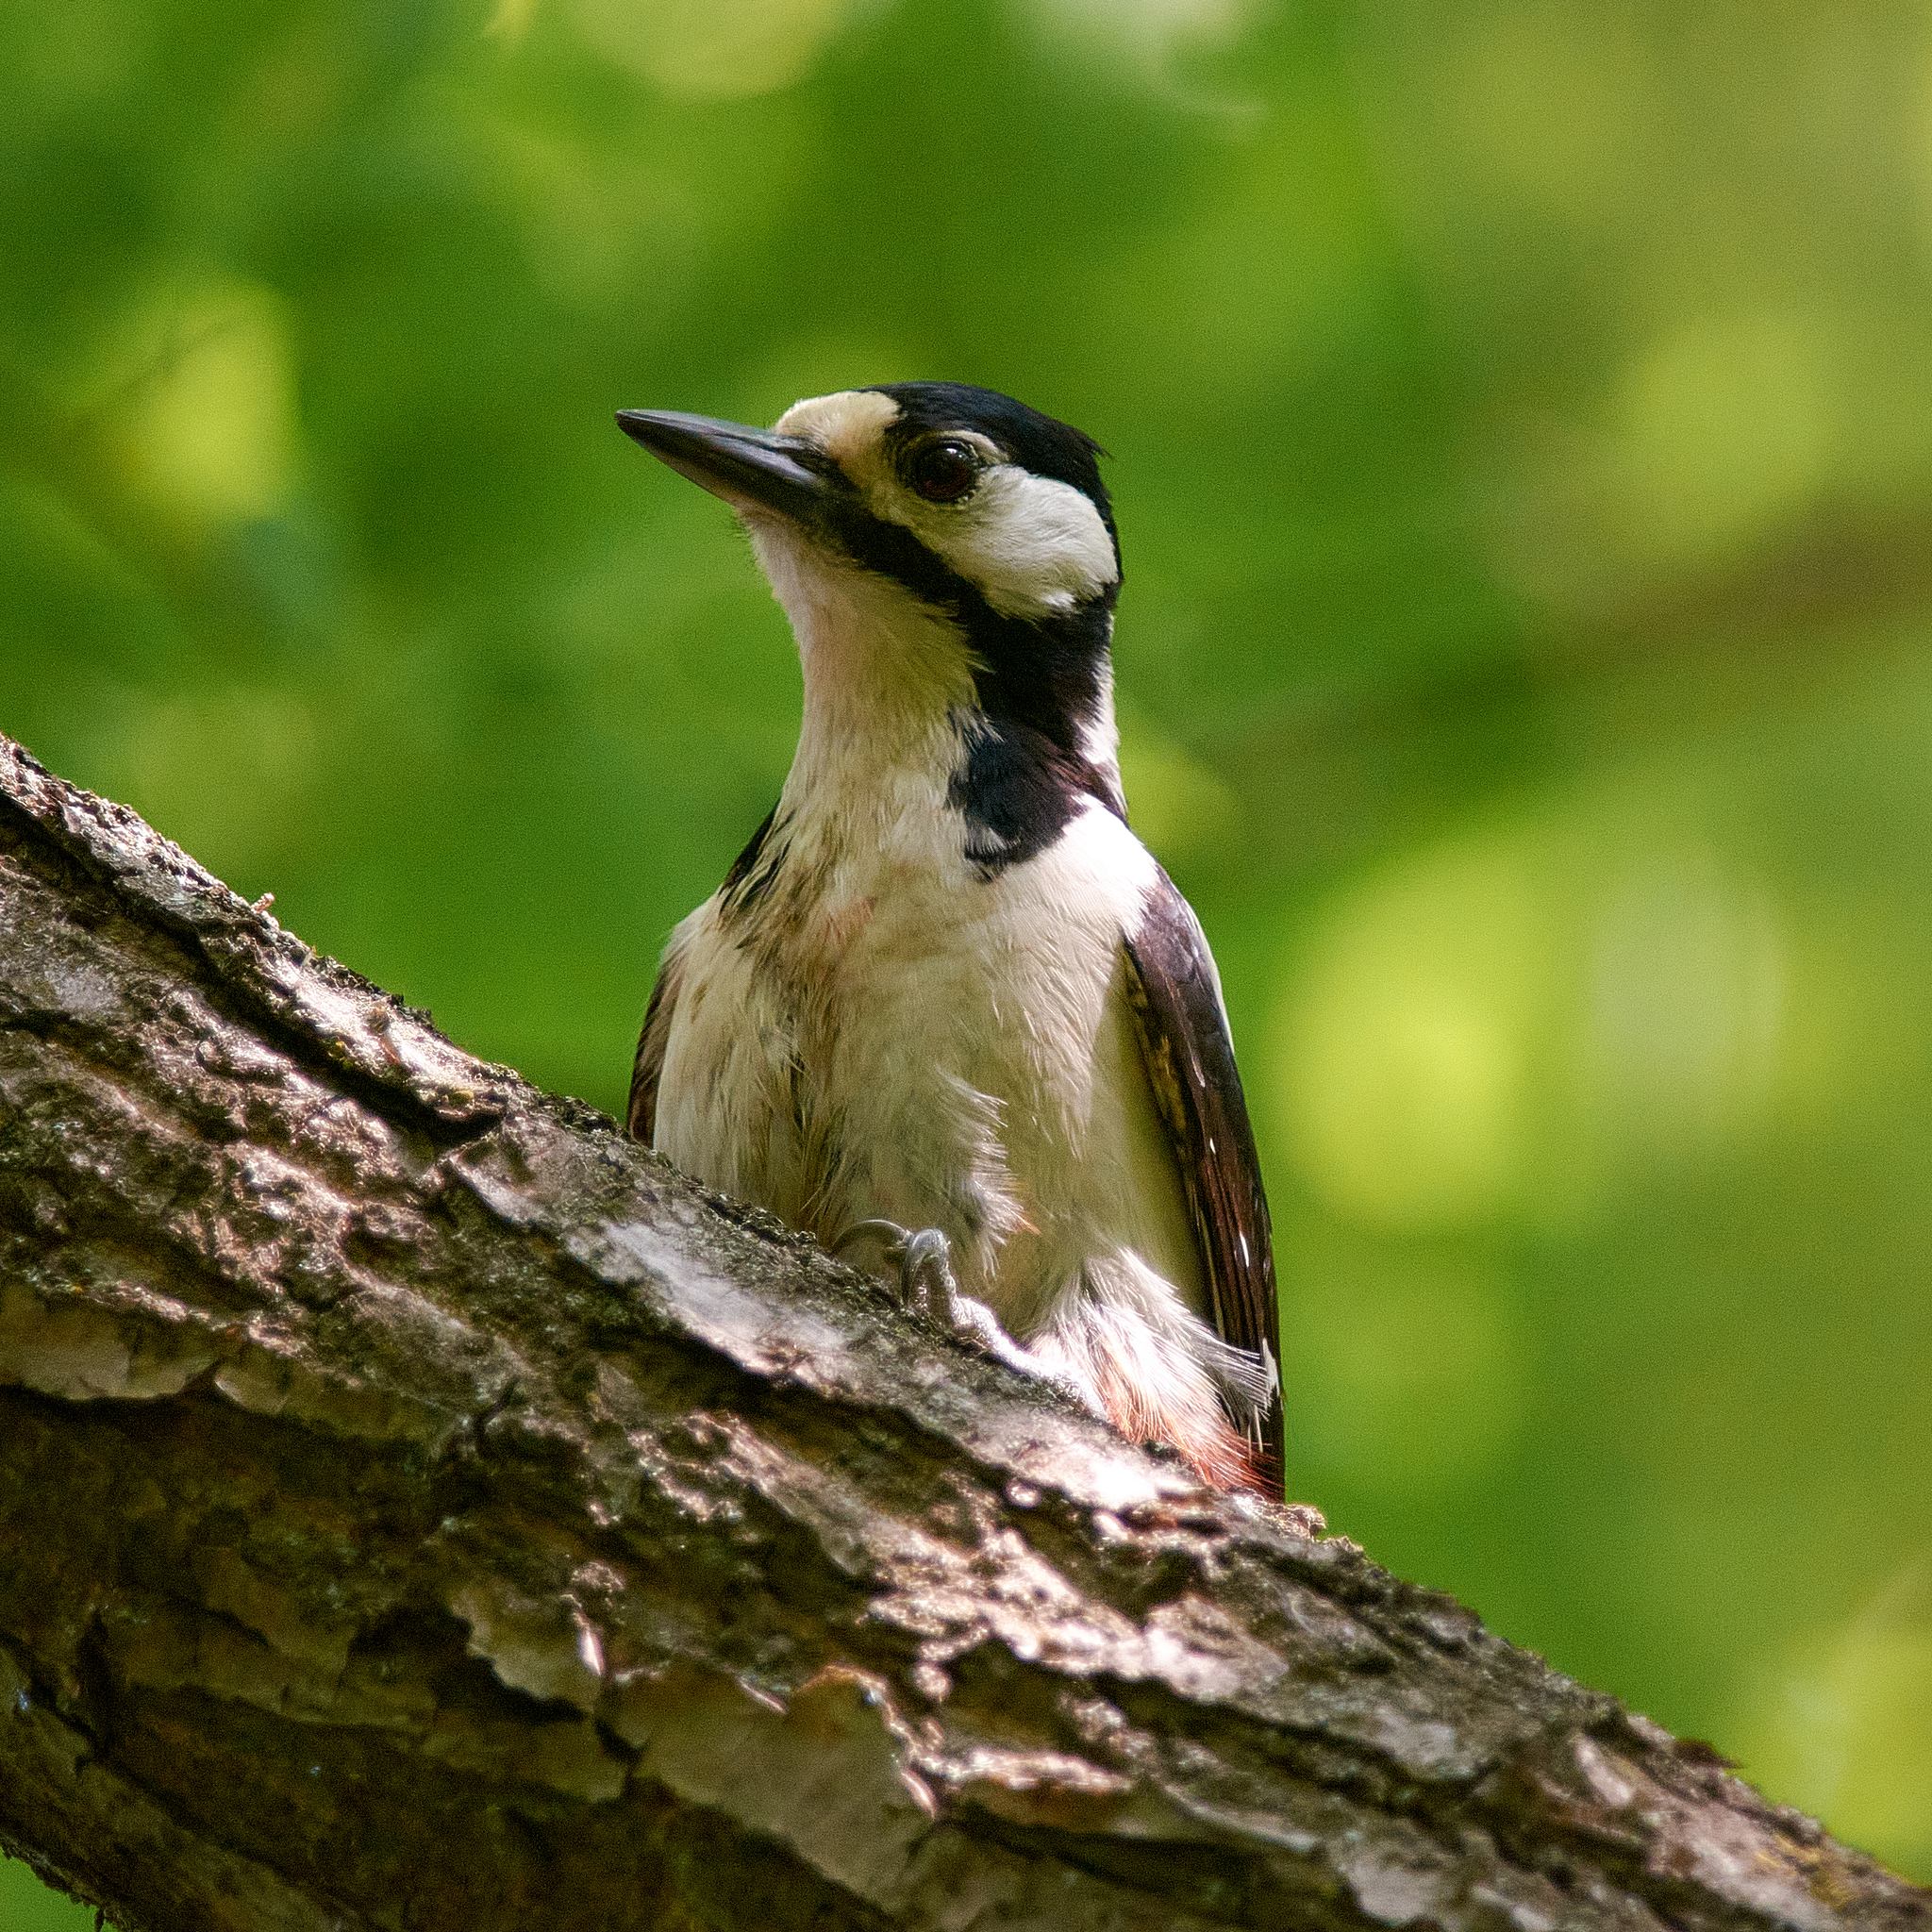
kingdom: Animalia
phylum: Chordata
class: Aves
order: Piciformes
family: Picidae
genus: Dendrocopos
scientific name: Dendrocopos major
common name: Great spotted woodpecker
